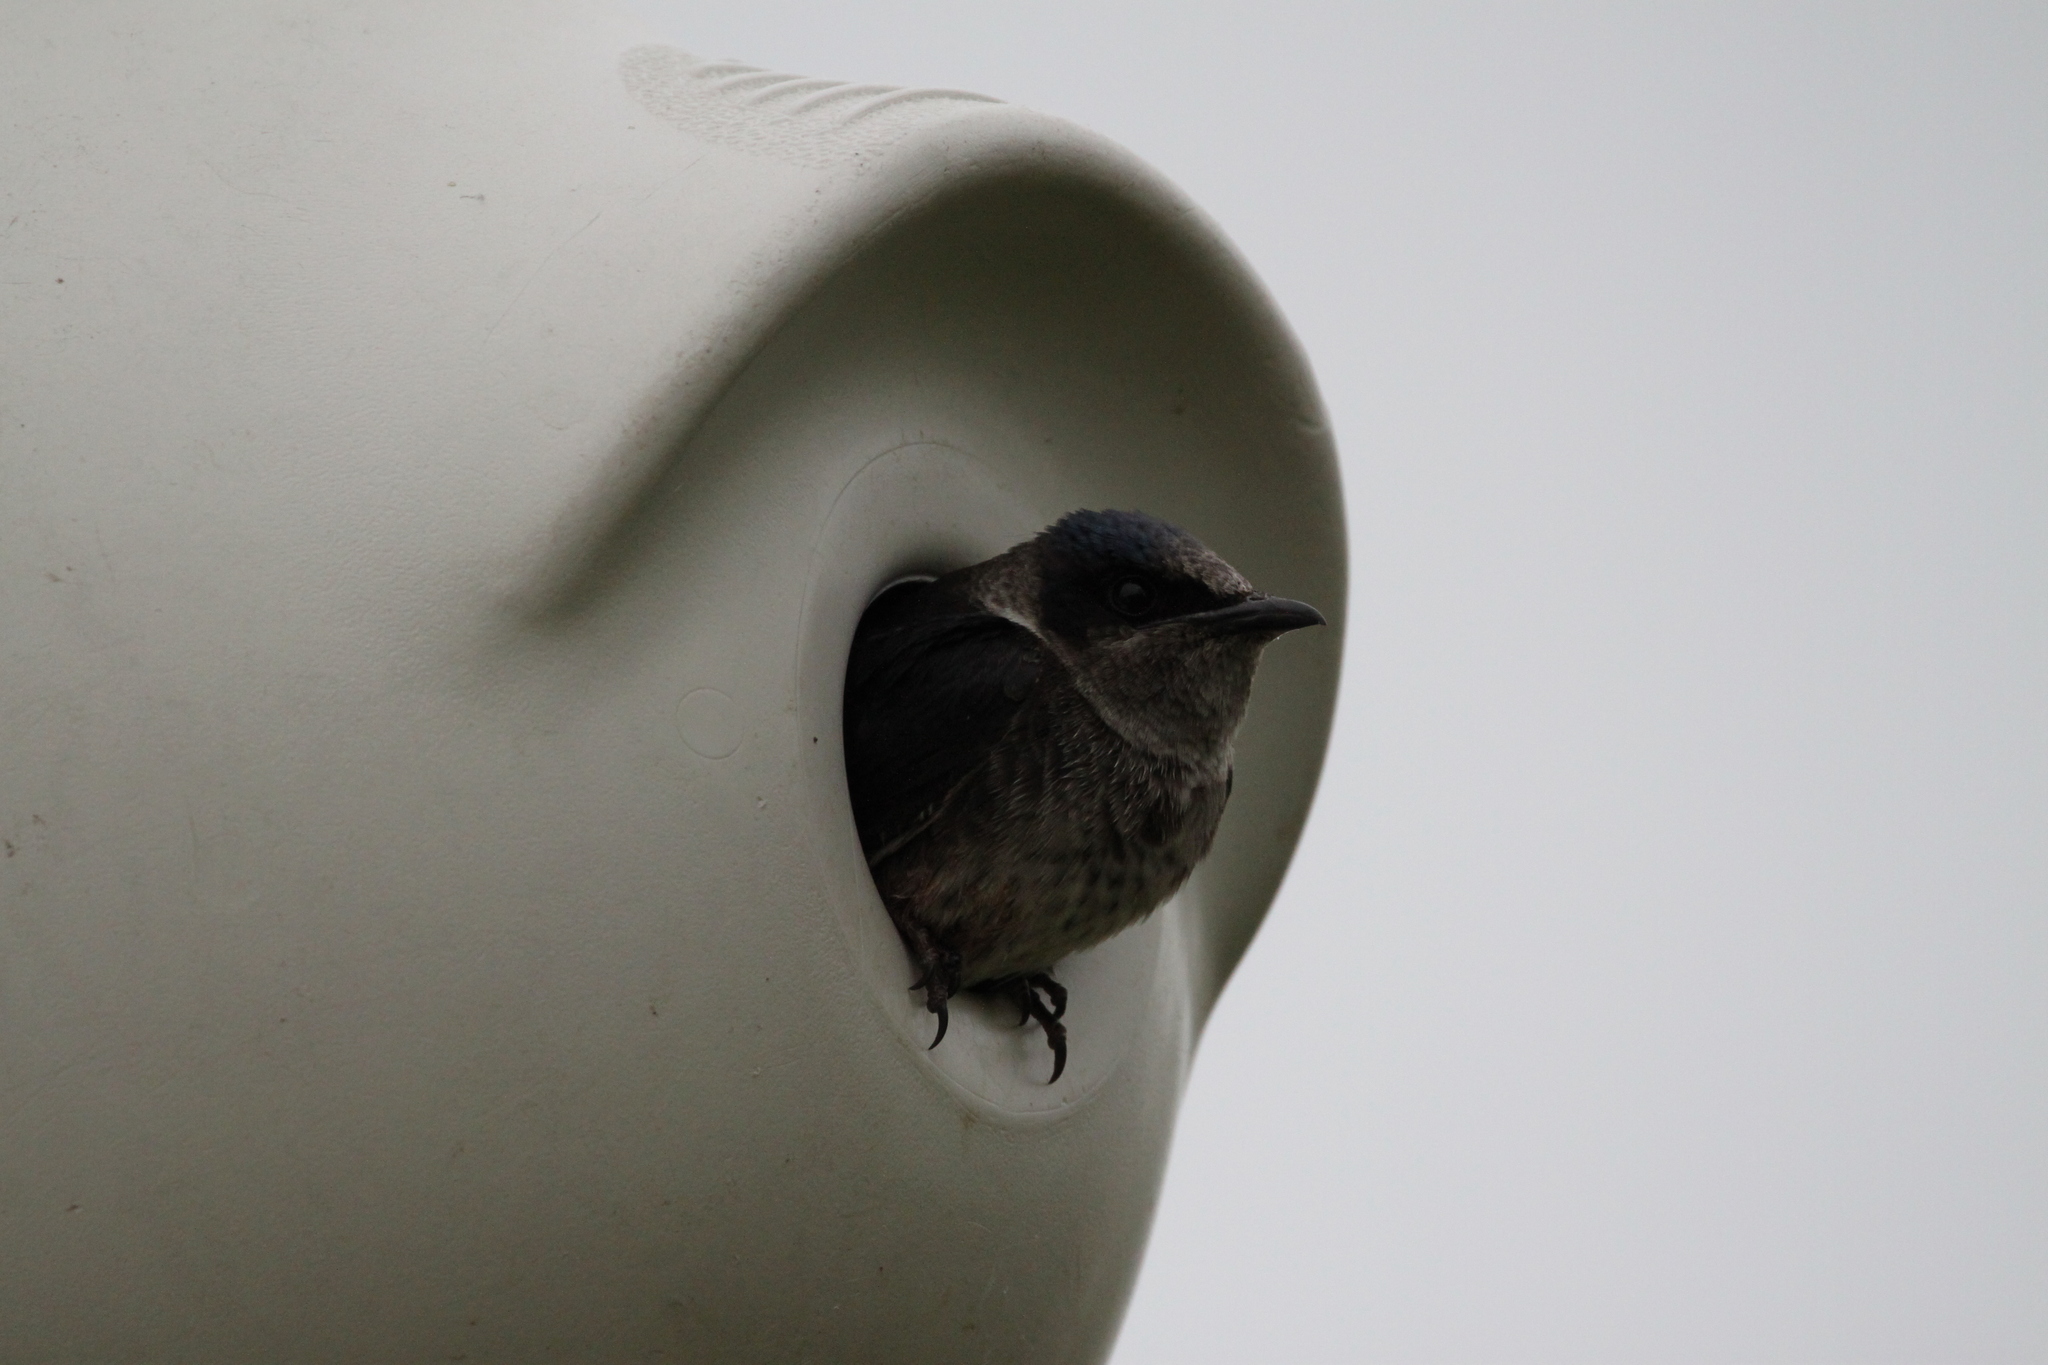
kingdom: Animalia
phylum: Chordata
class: Aves
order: Passeriformes
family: Hirundinidae
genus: Progne
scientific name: Progne subis
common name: Purple martin
